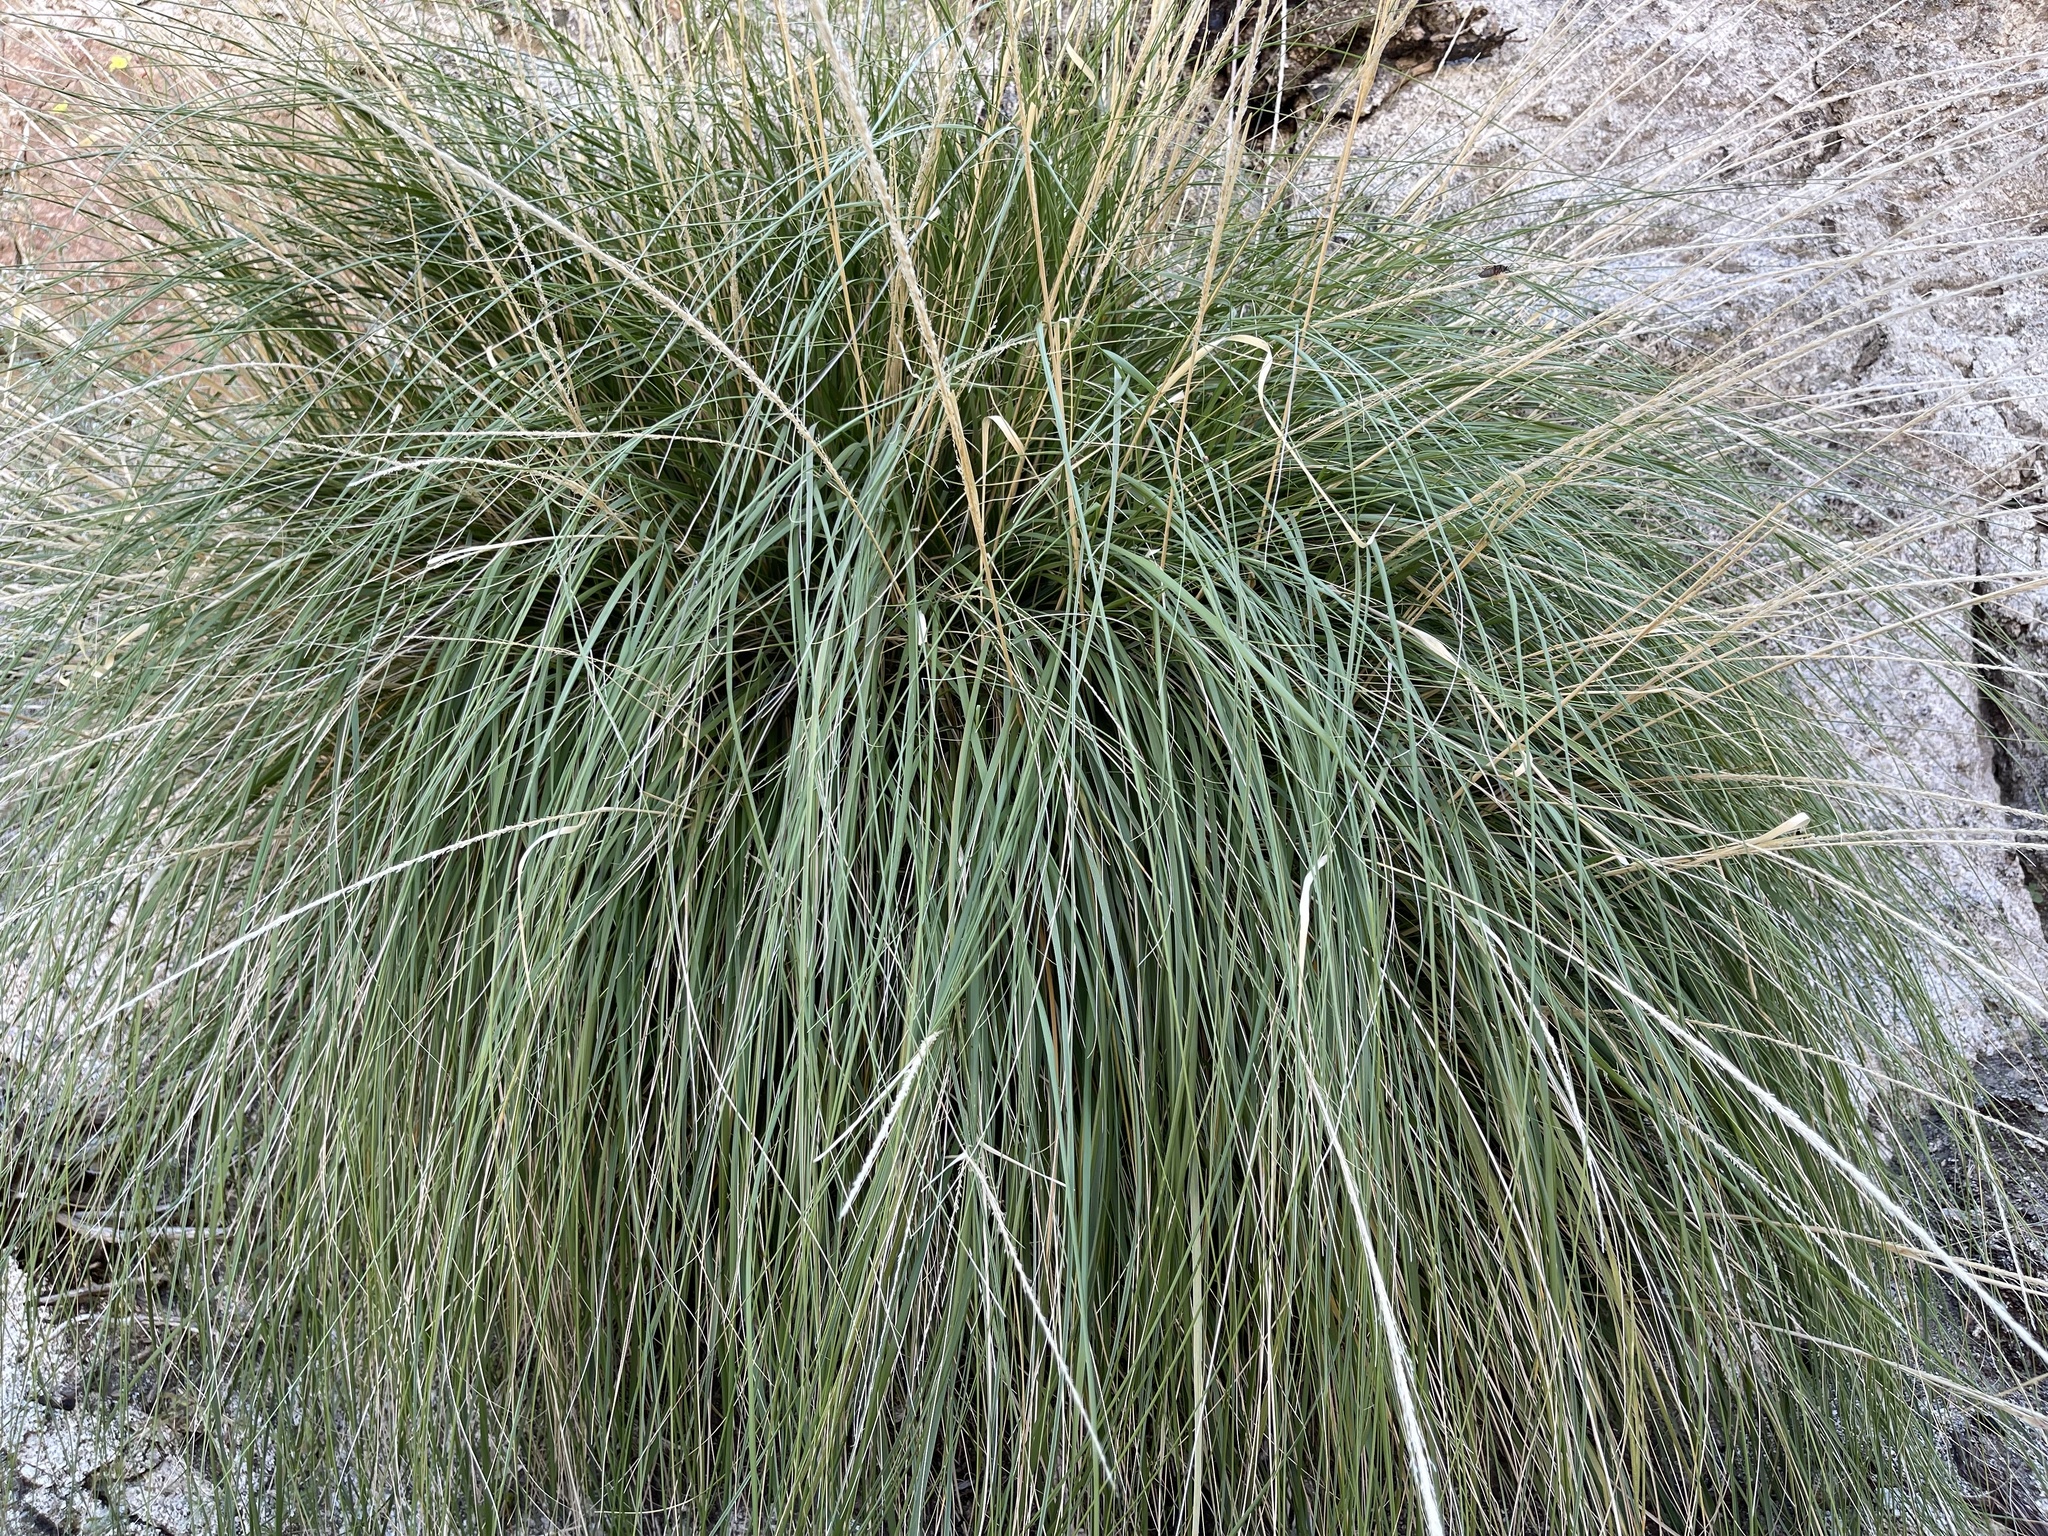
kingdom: Plantae
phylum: Tracheophyta
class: Liliopsida
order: Poales
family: Poaceae
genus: Muhlenbergia
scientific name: Muhlenbergia rigens
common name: Deer grass
